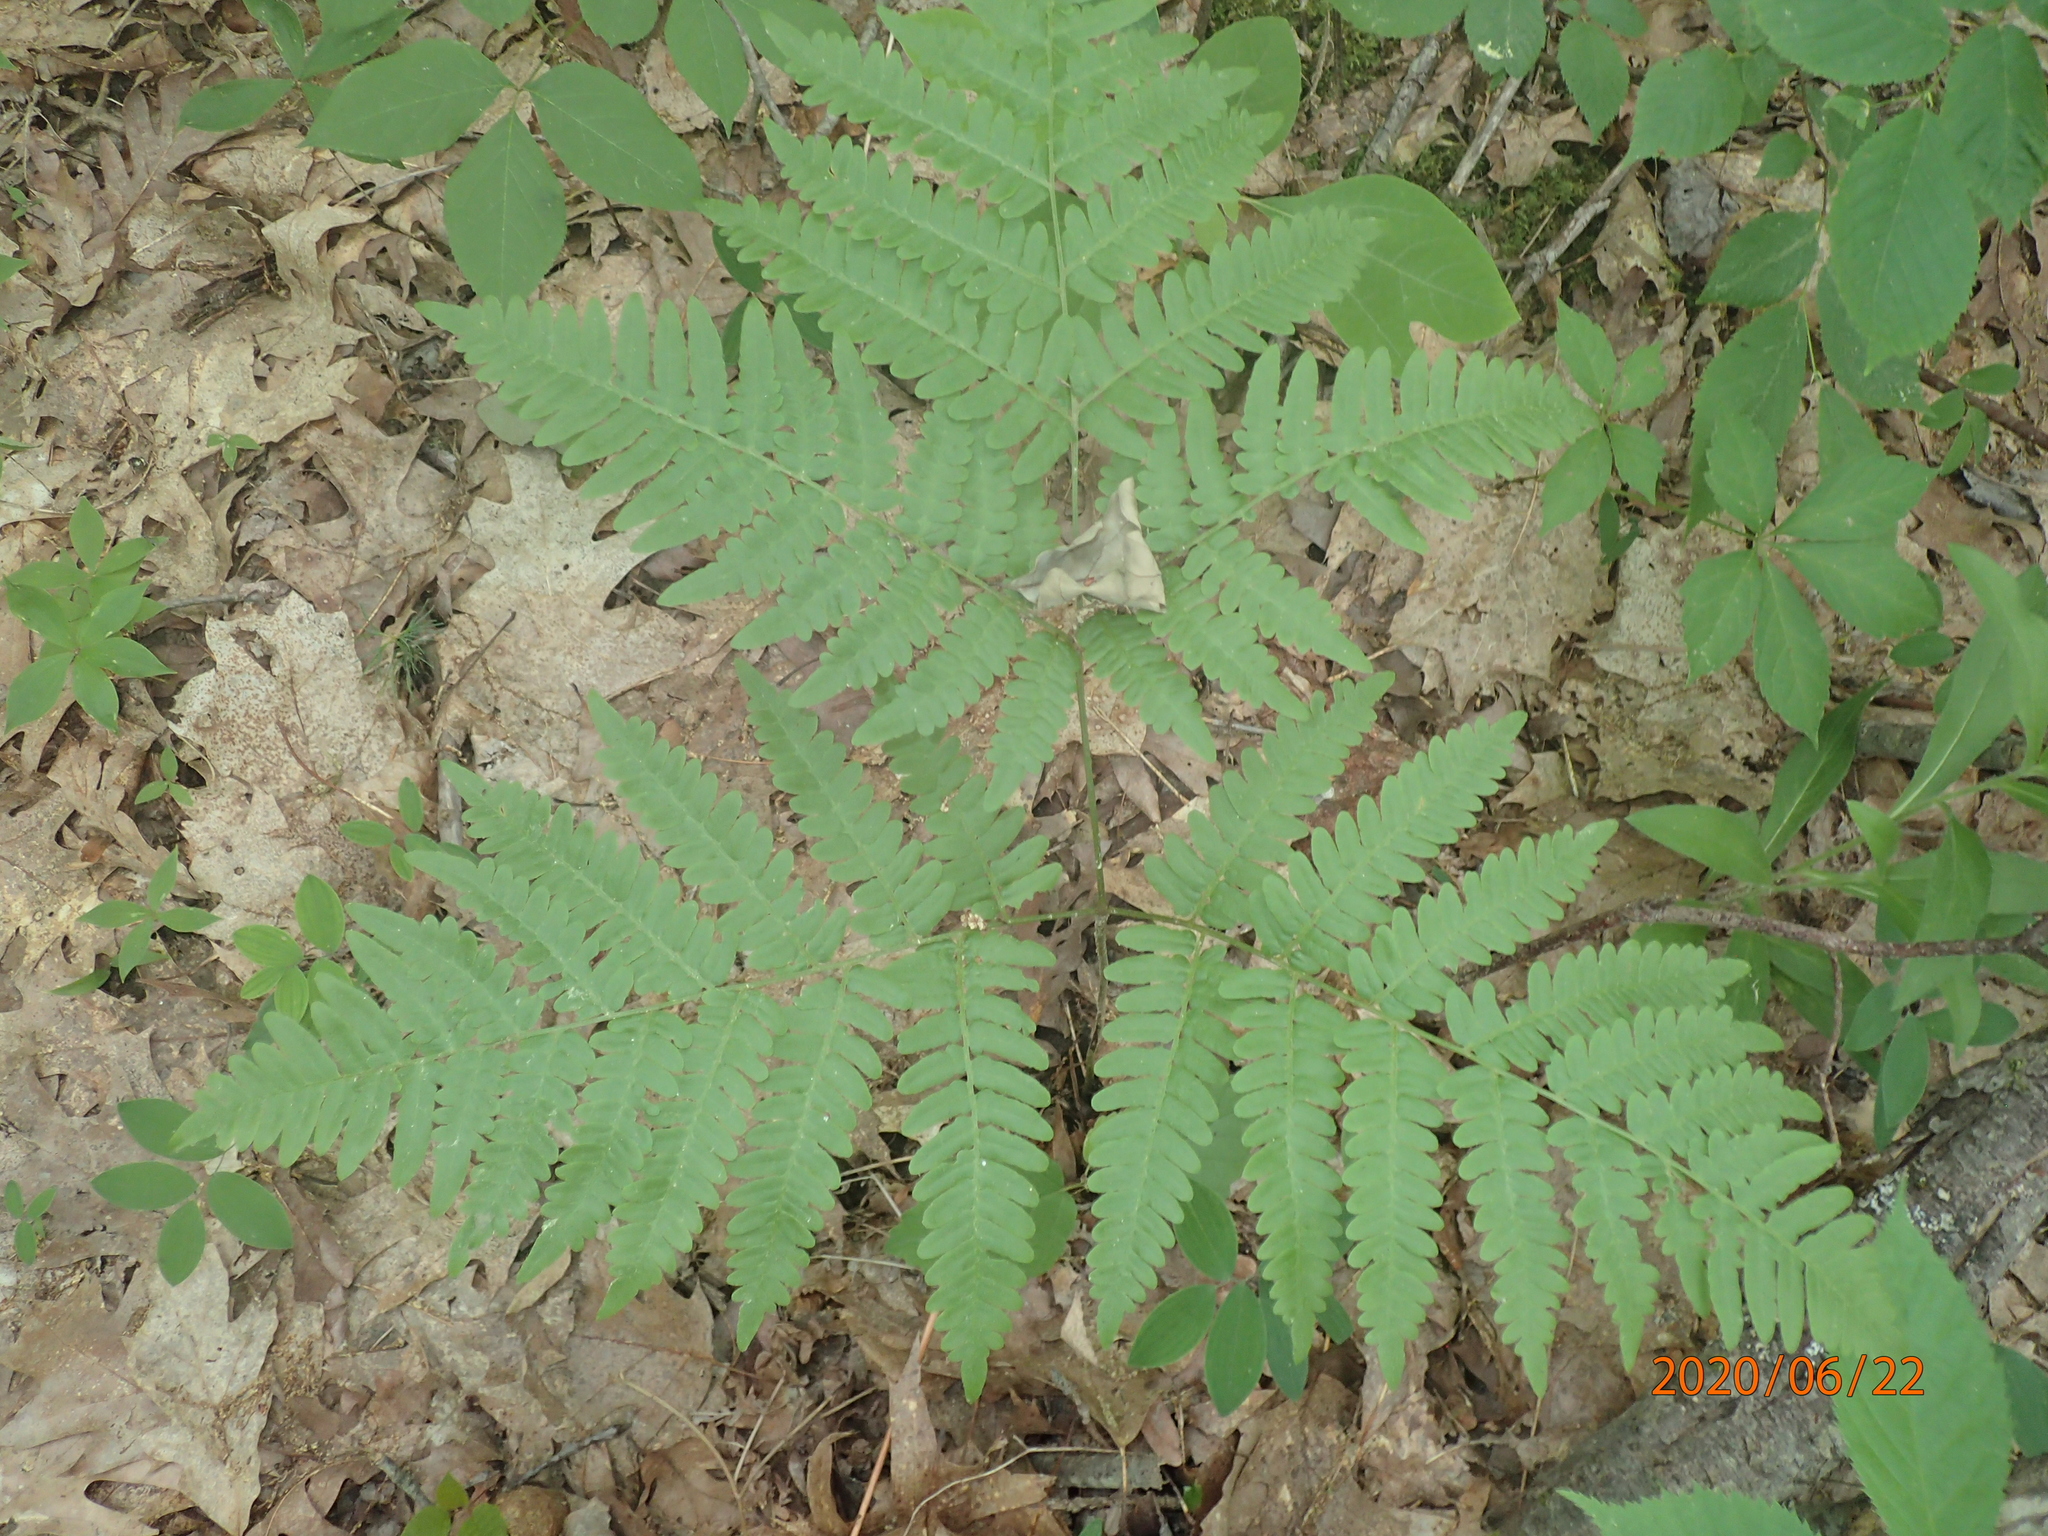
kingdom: Plantae
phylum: Tracheophyta
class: Polypodiopsida
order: Polypodiales
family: Dennstaedtiaceae
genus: Pteridium
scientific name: Pteridium aquilinum
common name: Bracken
